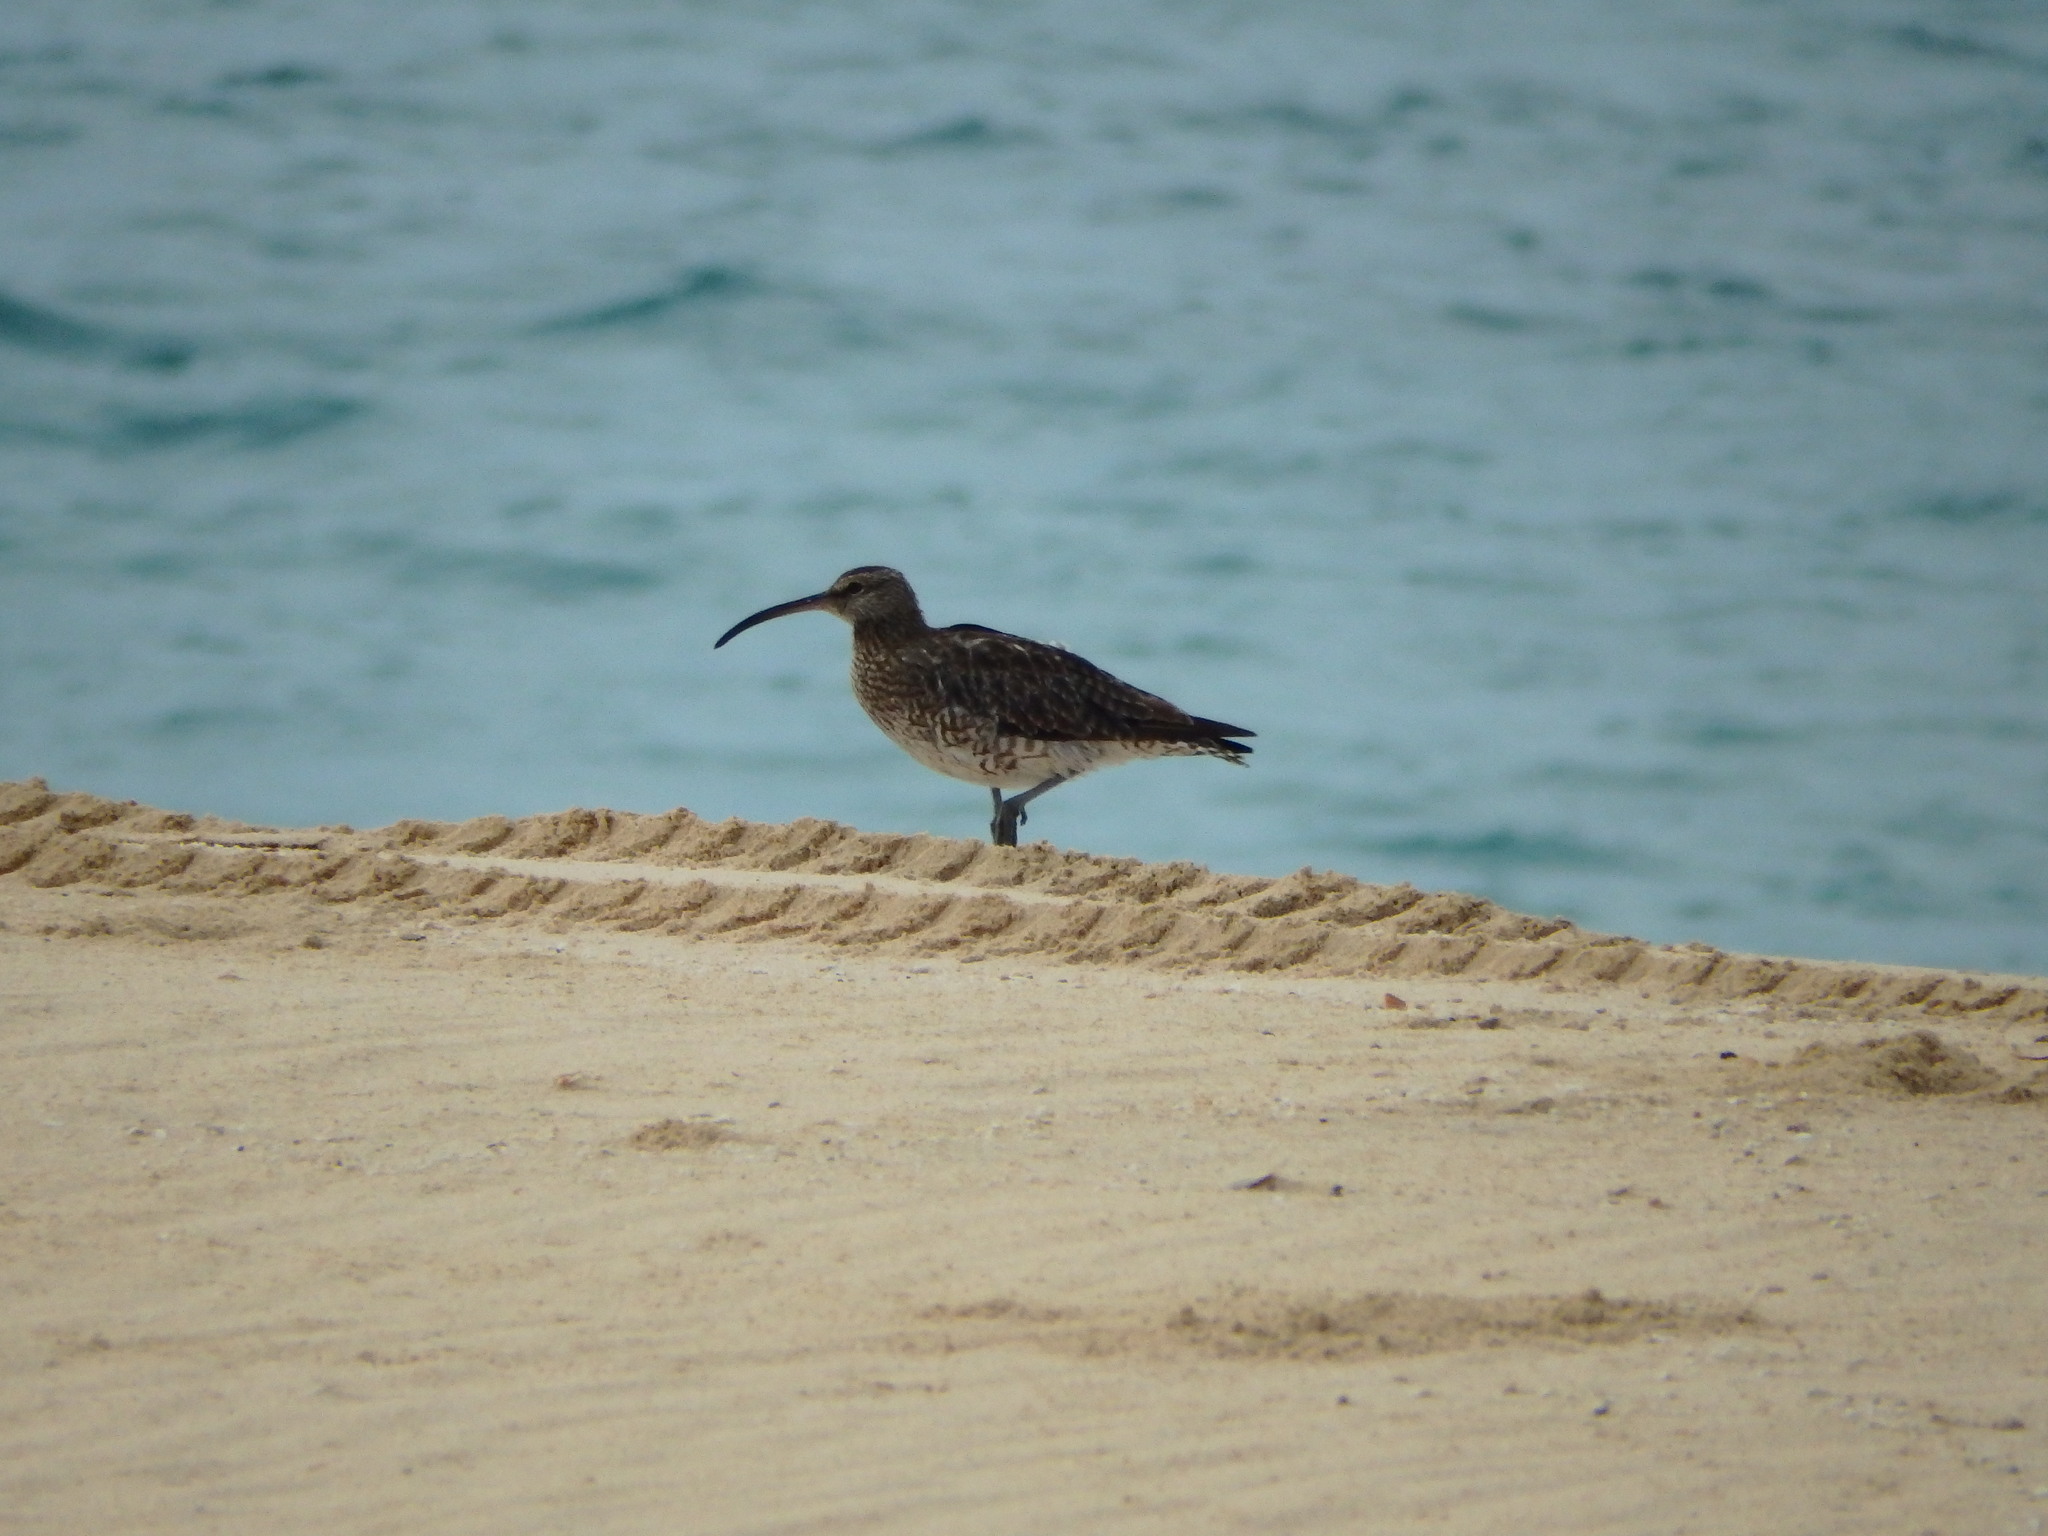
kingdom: Animalia
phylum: Chordata
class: Aves
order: Charadriiformes
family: Scolopacidae
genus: Numenius
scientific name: Numenius phaeopus
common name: Whimbrel
